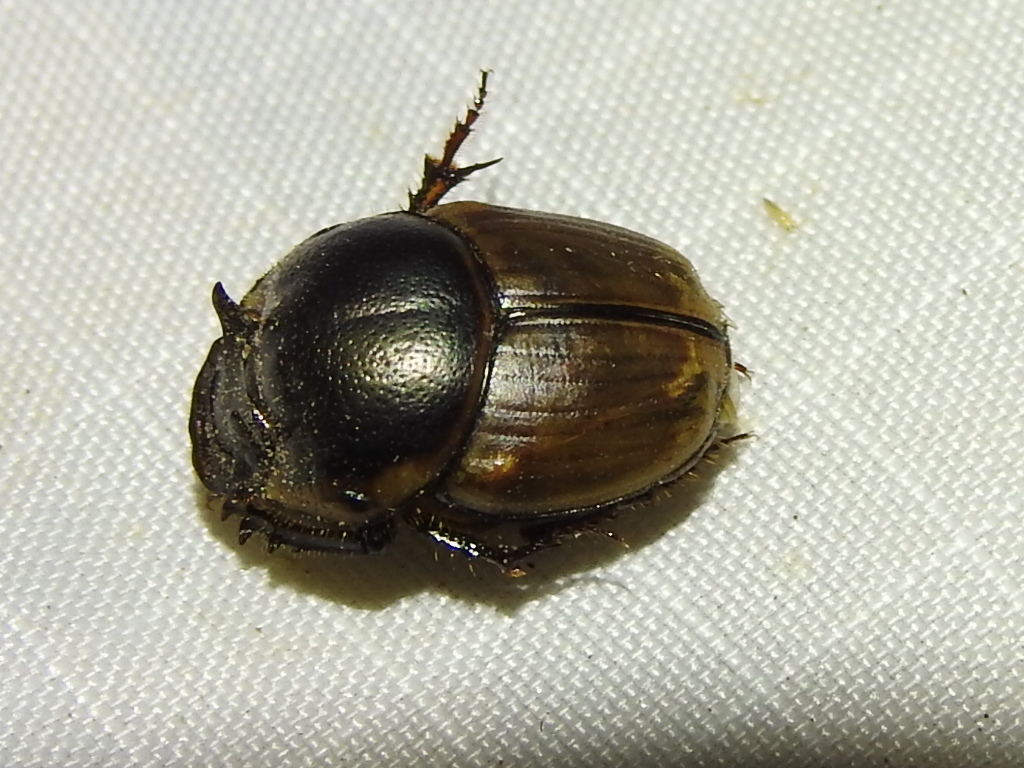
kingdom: Animalia
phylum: Arthropoda
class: Insecta
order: Coleoptera
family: Scarabaeidae
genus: Digitonthophagus
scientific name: Digitonthophagus gazella
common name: Brown dung beetle
